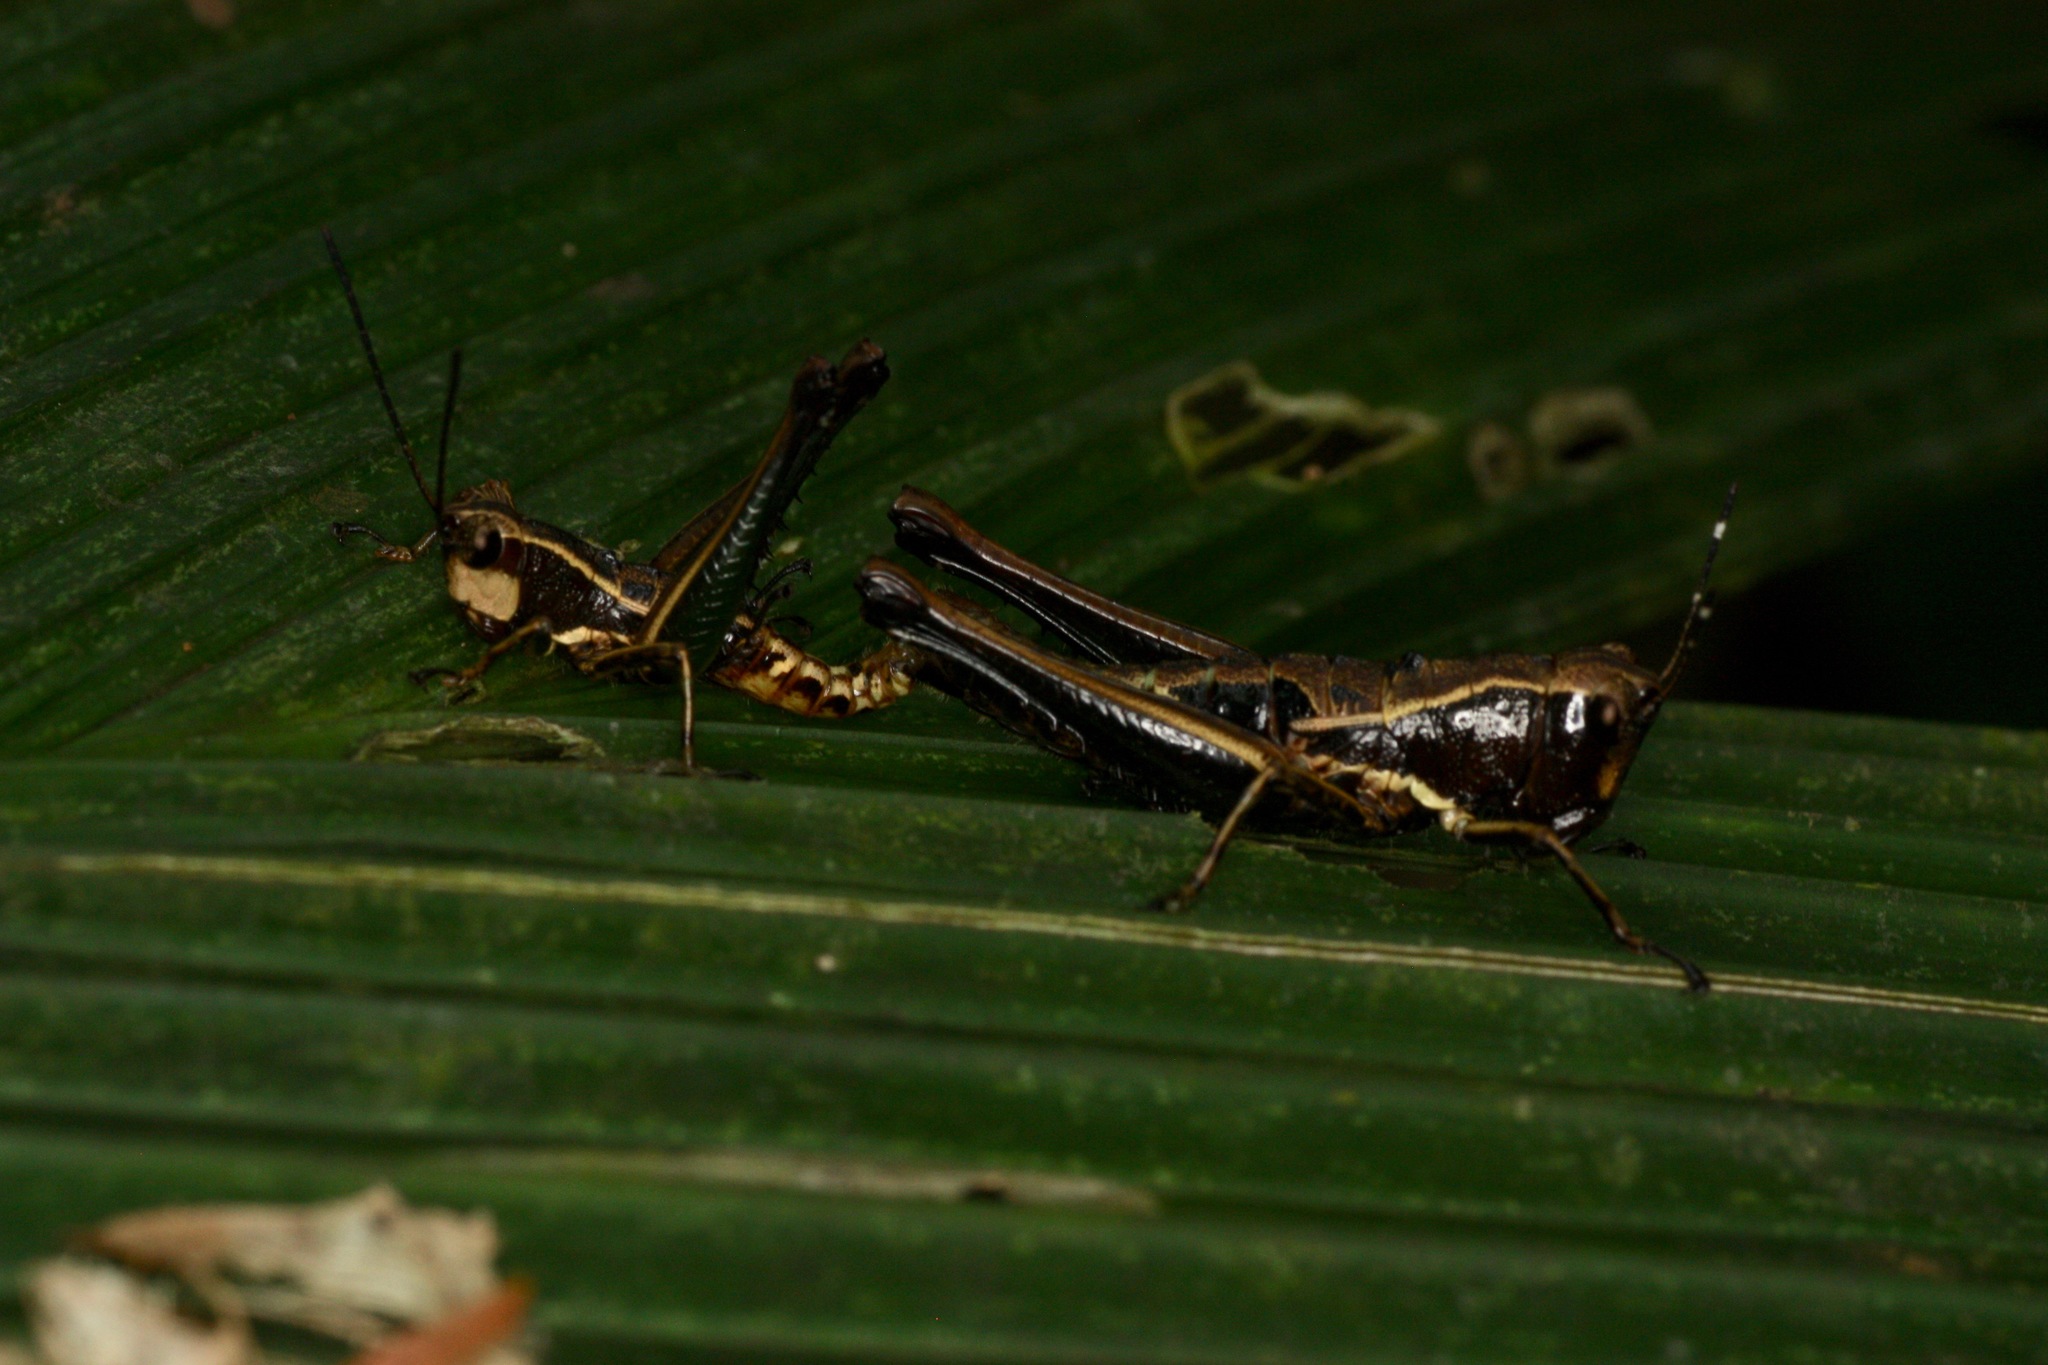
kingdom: Animalia
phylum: Arthropoda
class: Insecta
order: Orthoptera
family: Acrididae
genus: Microtylopteryx
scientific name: Microtylopteryx hebardi
